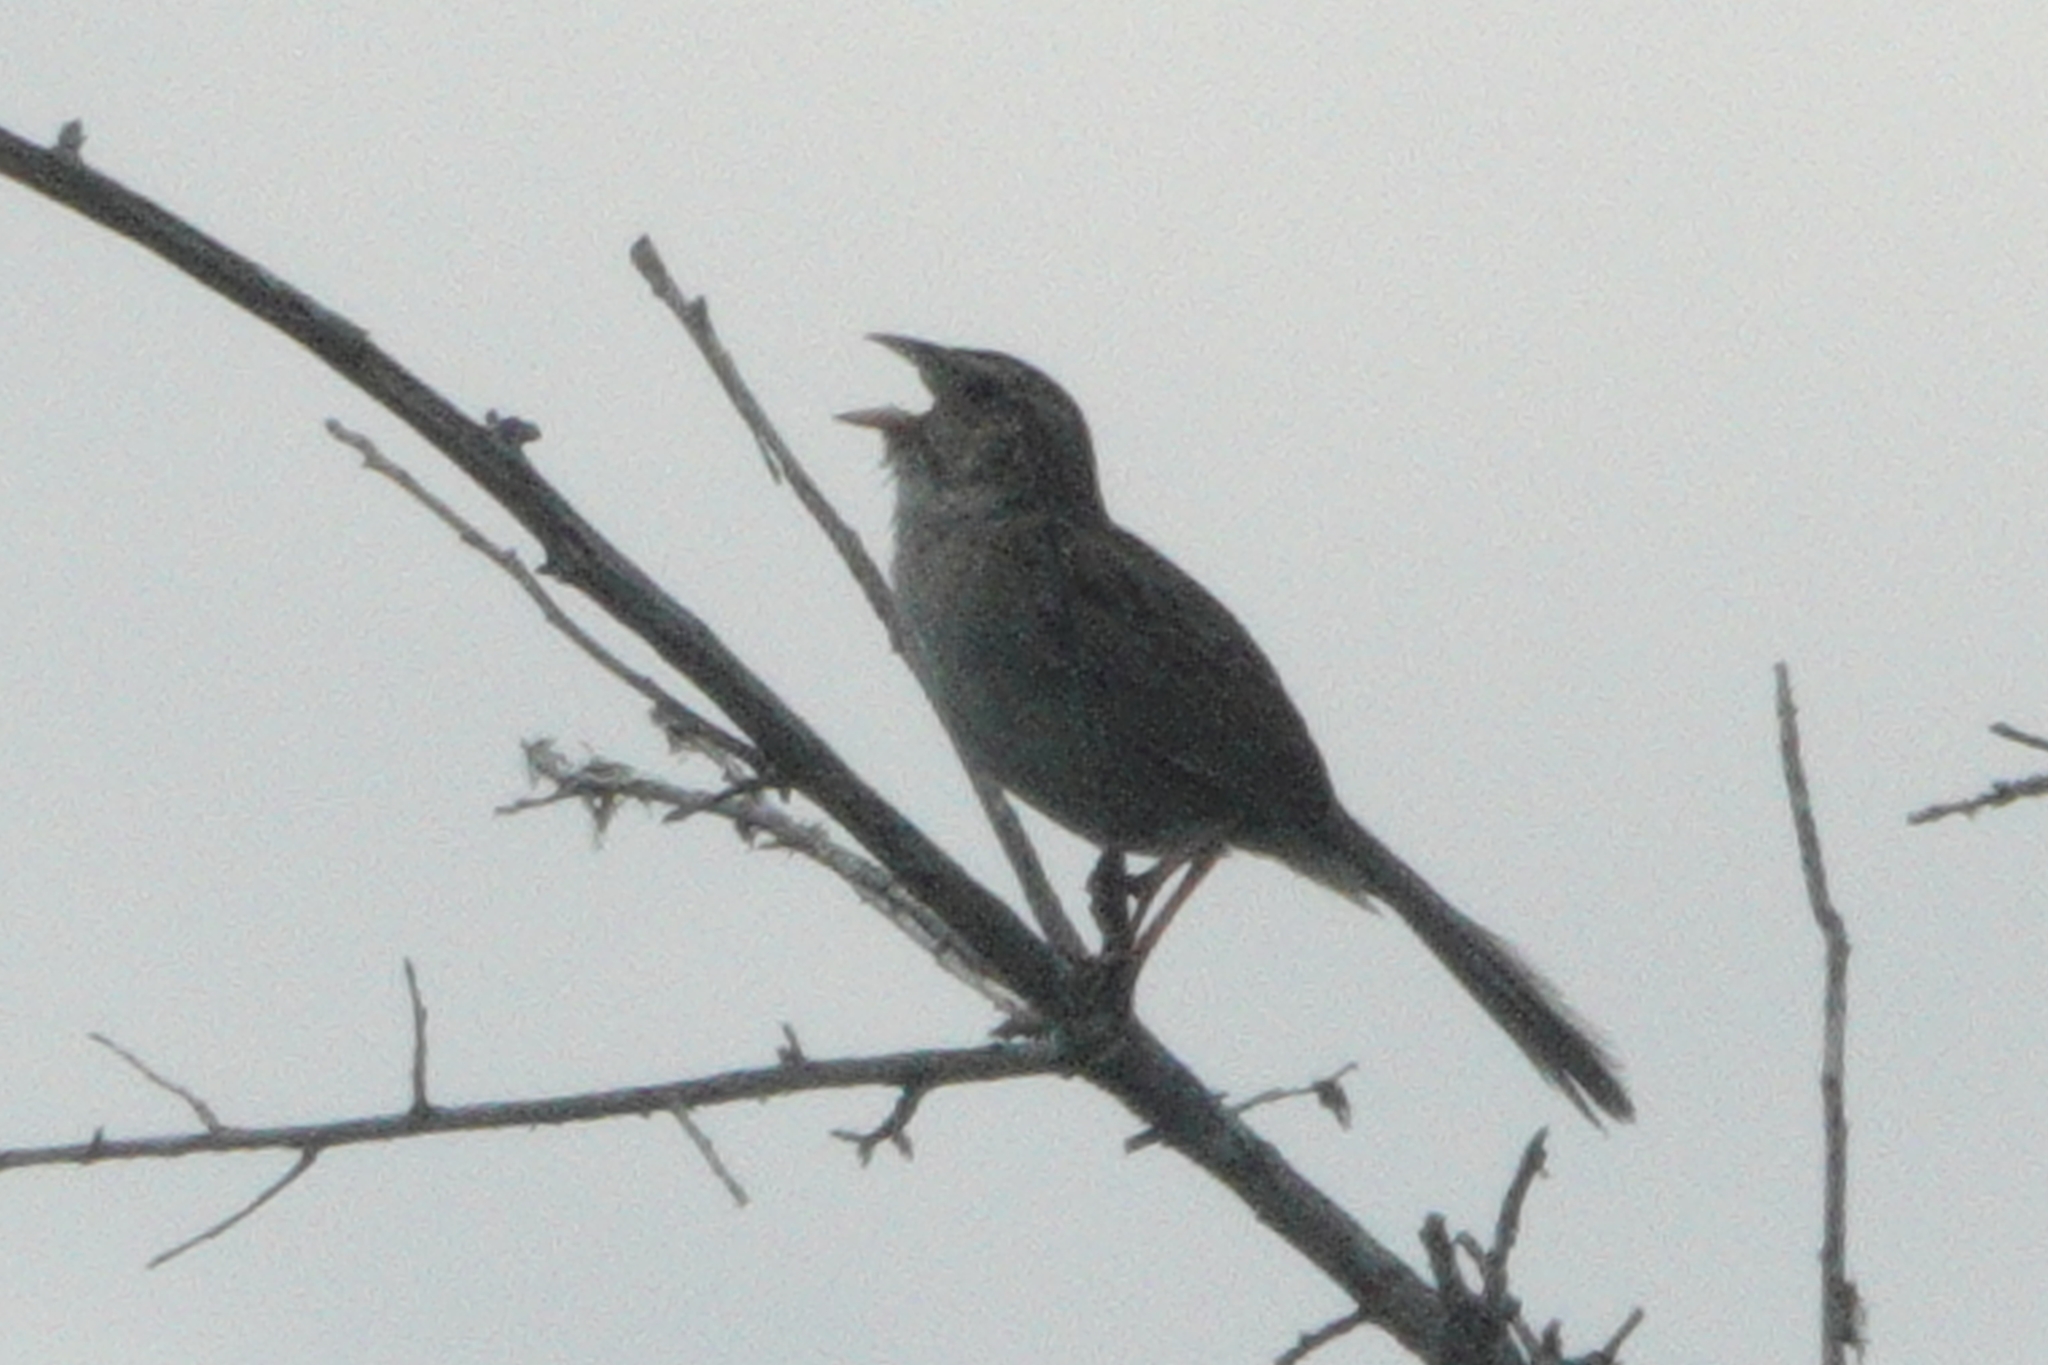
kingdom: Animalia
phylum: Chordata
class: Aves
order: Passeriformes
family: Passerellidae
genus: Peucaea
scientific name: Peucaea aestivalis
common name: Bachman's sparrow
